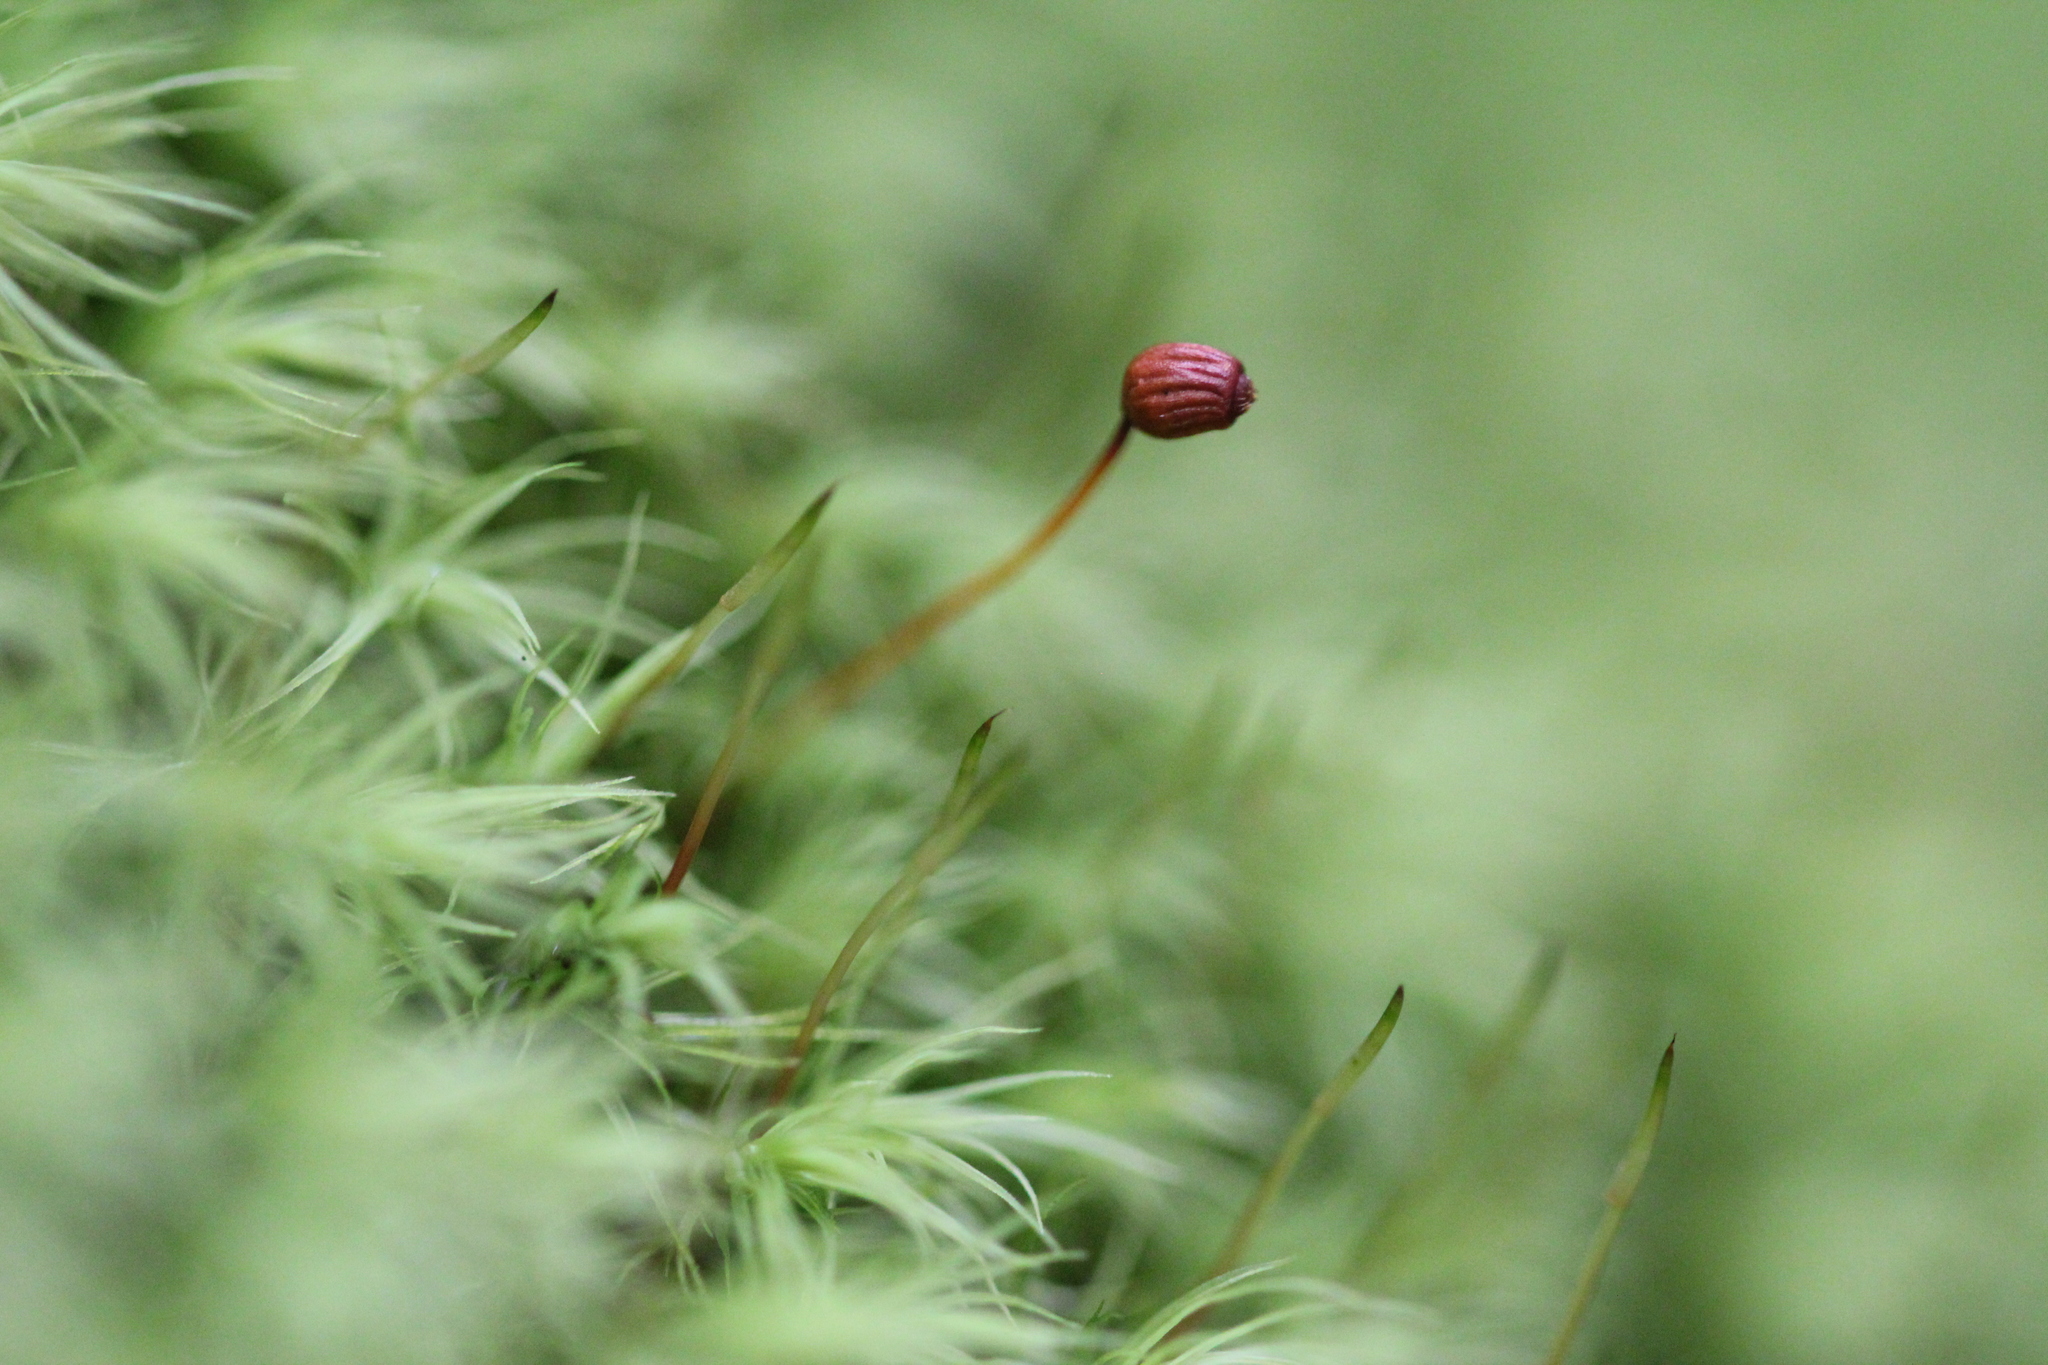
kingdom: Plantae
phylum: Bryophyta
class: Bryopsida
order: Bartramiales
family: Bartramiaceae
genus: Bartramia
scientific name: Bartramia ithyphylla
